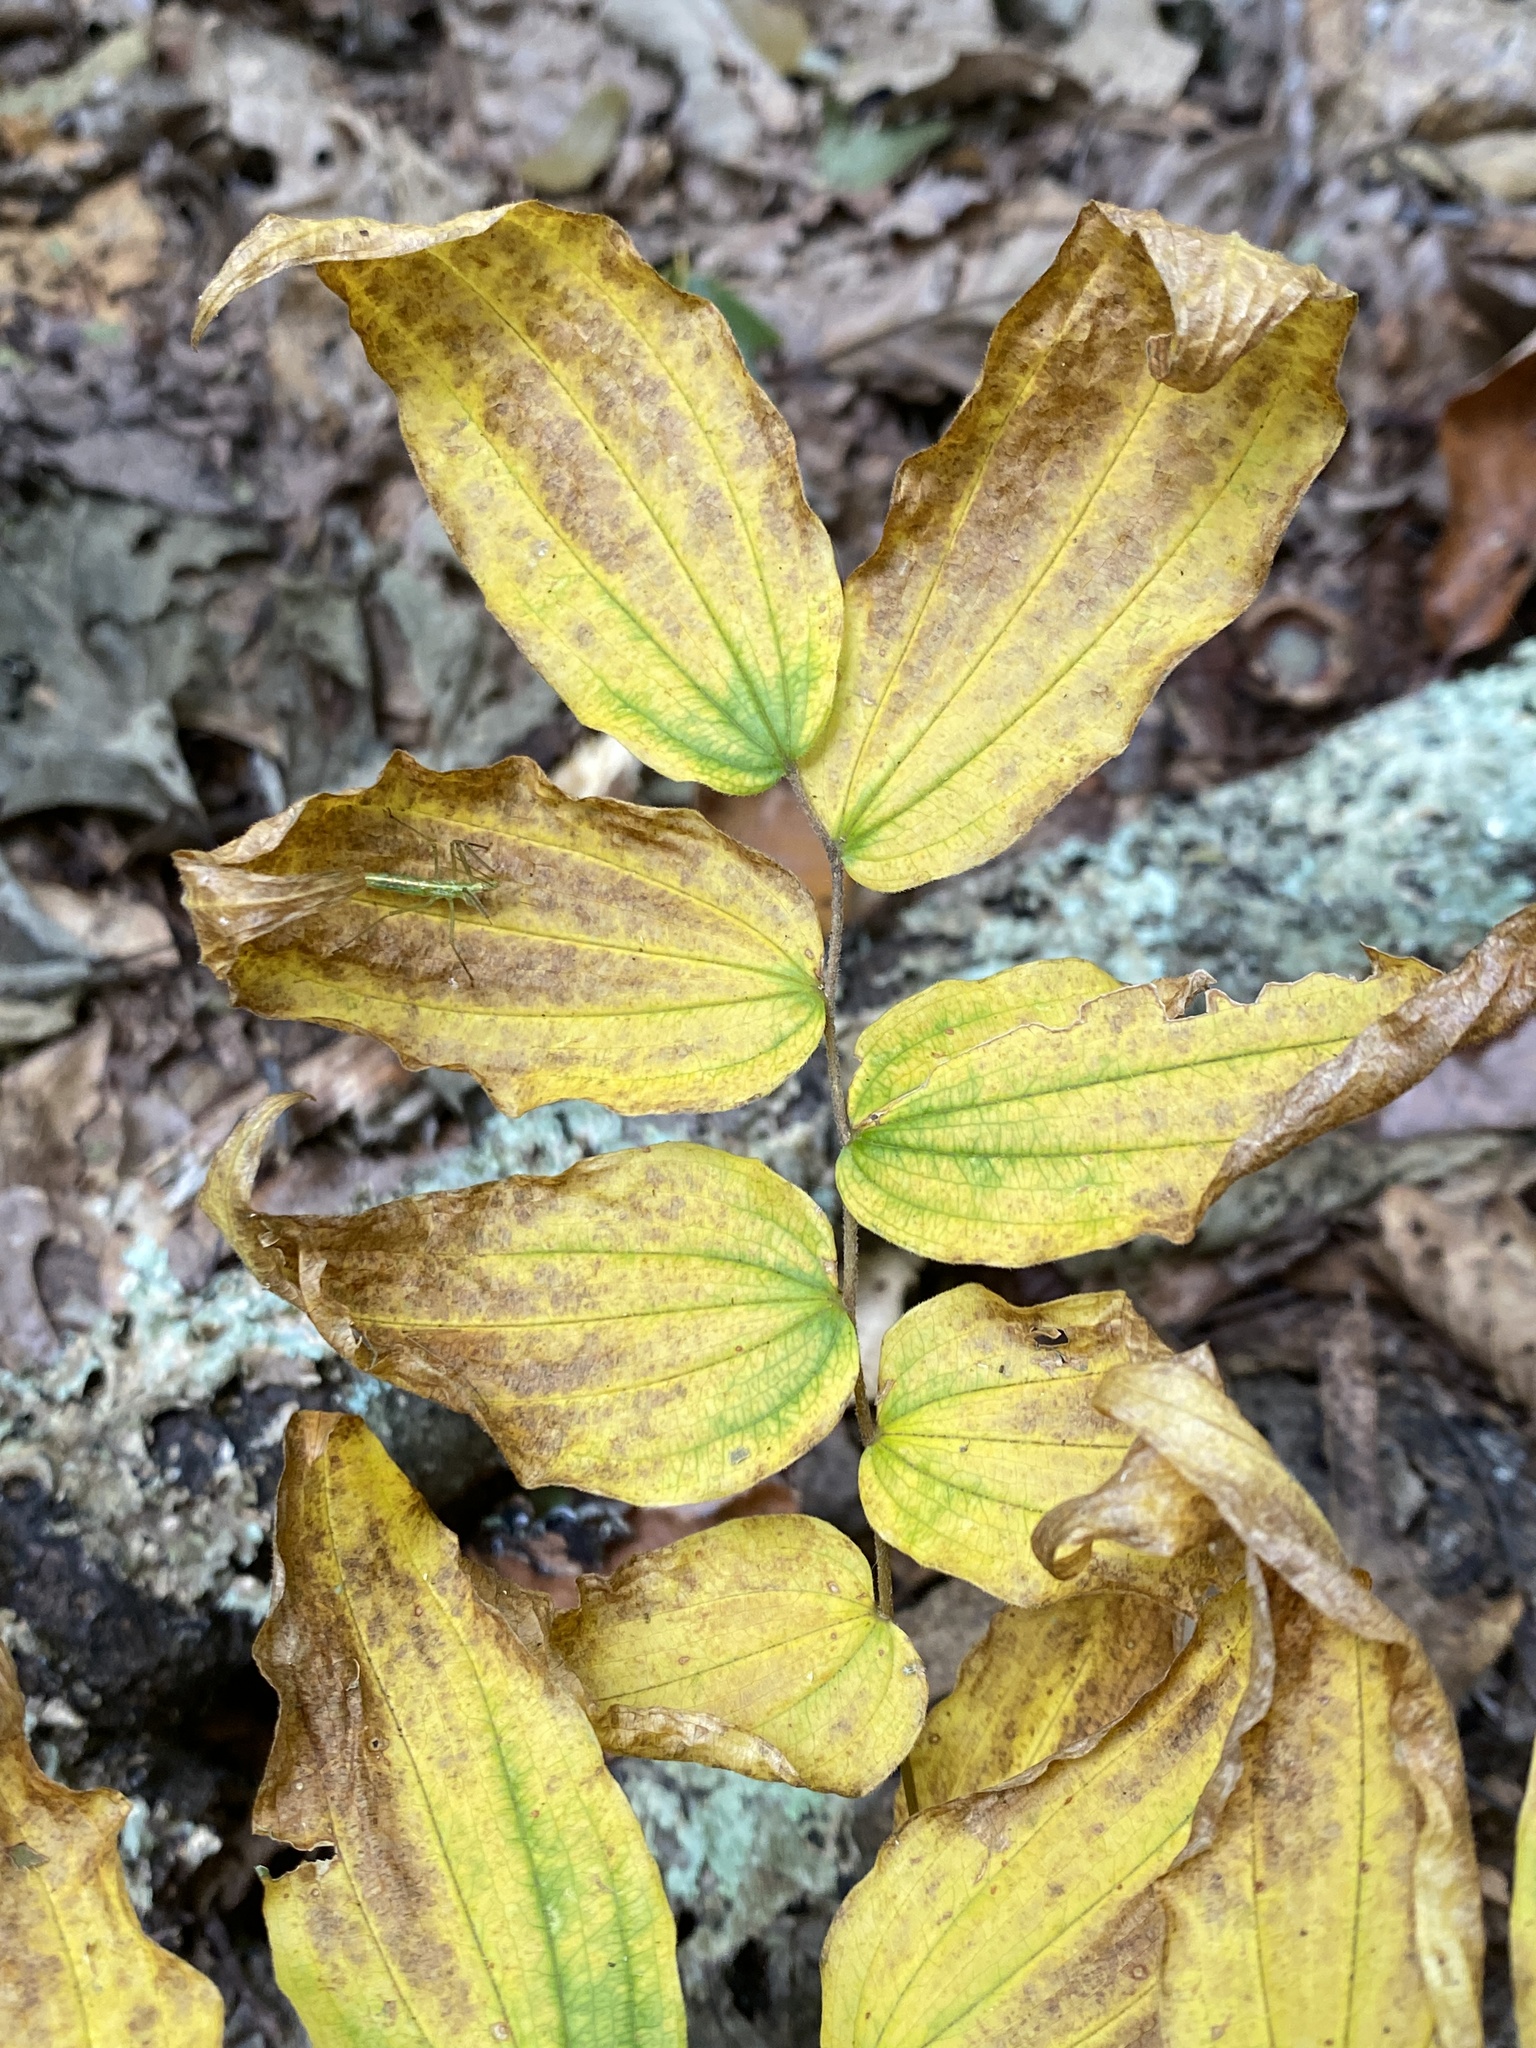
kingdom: Plantae
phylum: Tracheophyta
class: Liliopsida
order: Liliales
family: Liliaceae
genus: Prosartes
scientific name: Prosartes lanuginosa
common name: Hairy mandarin
